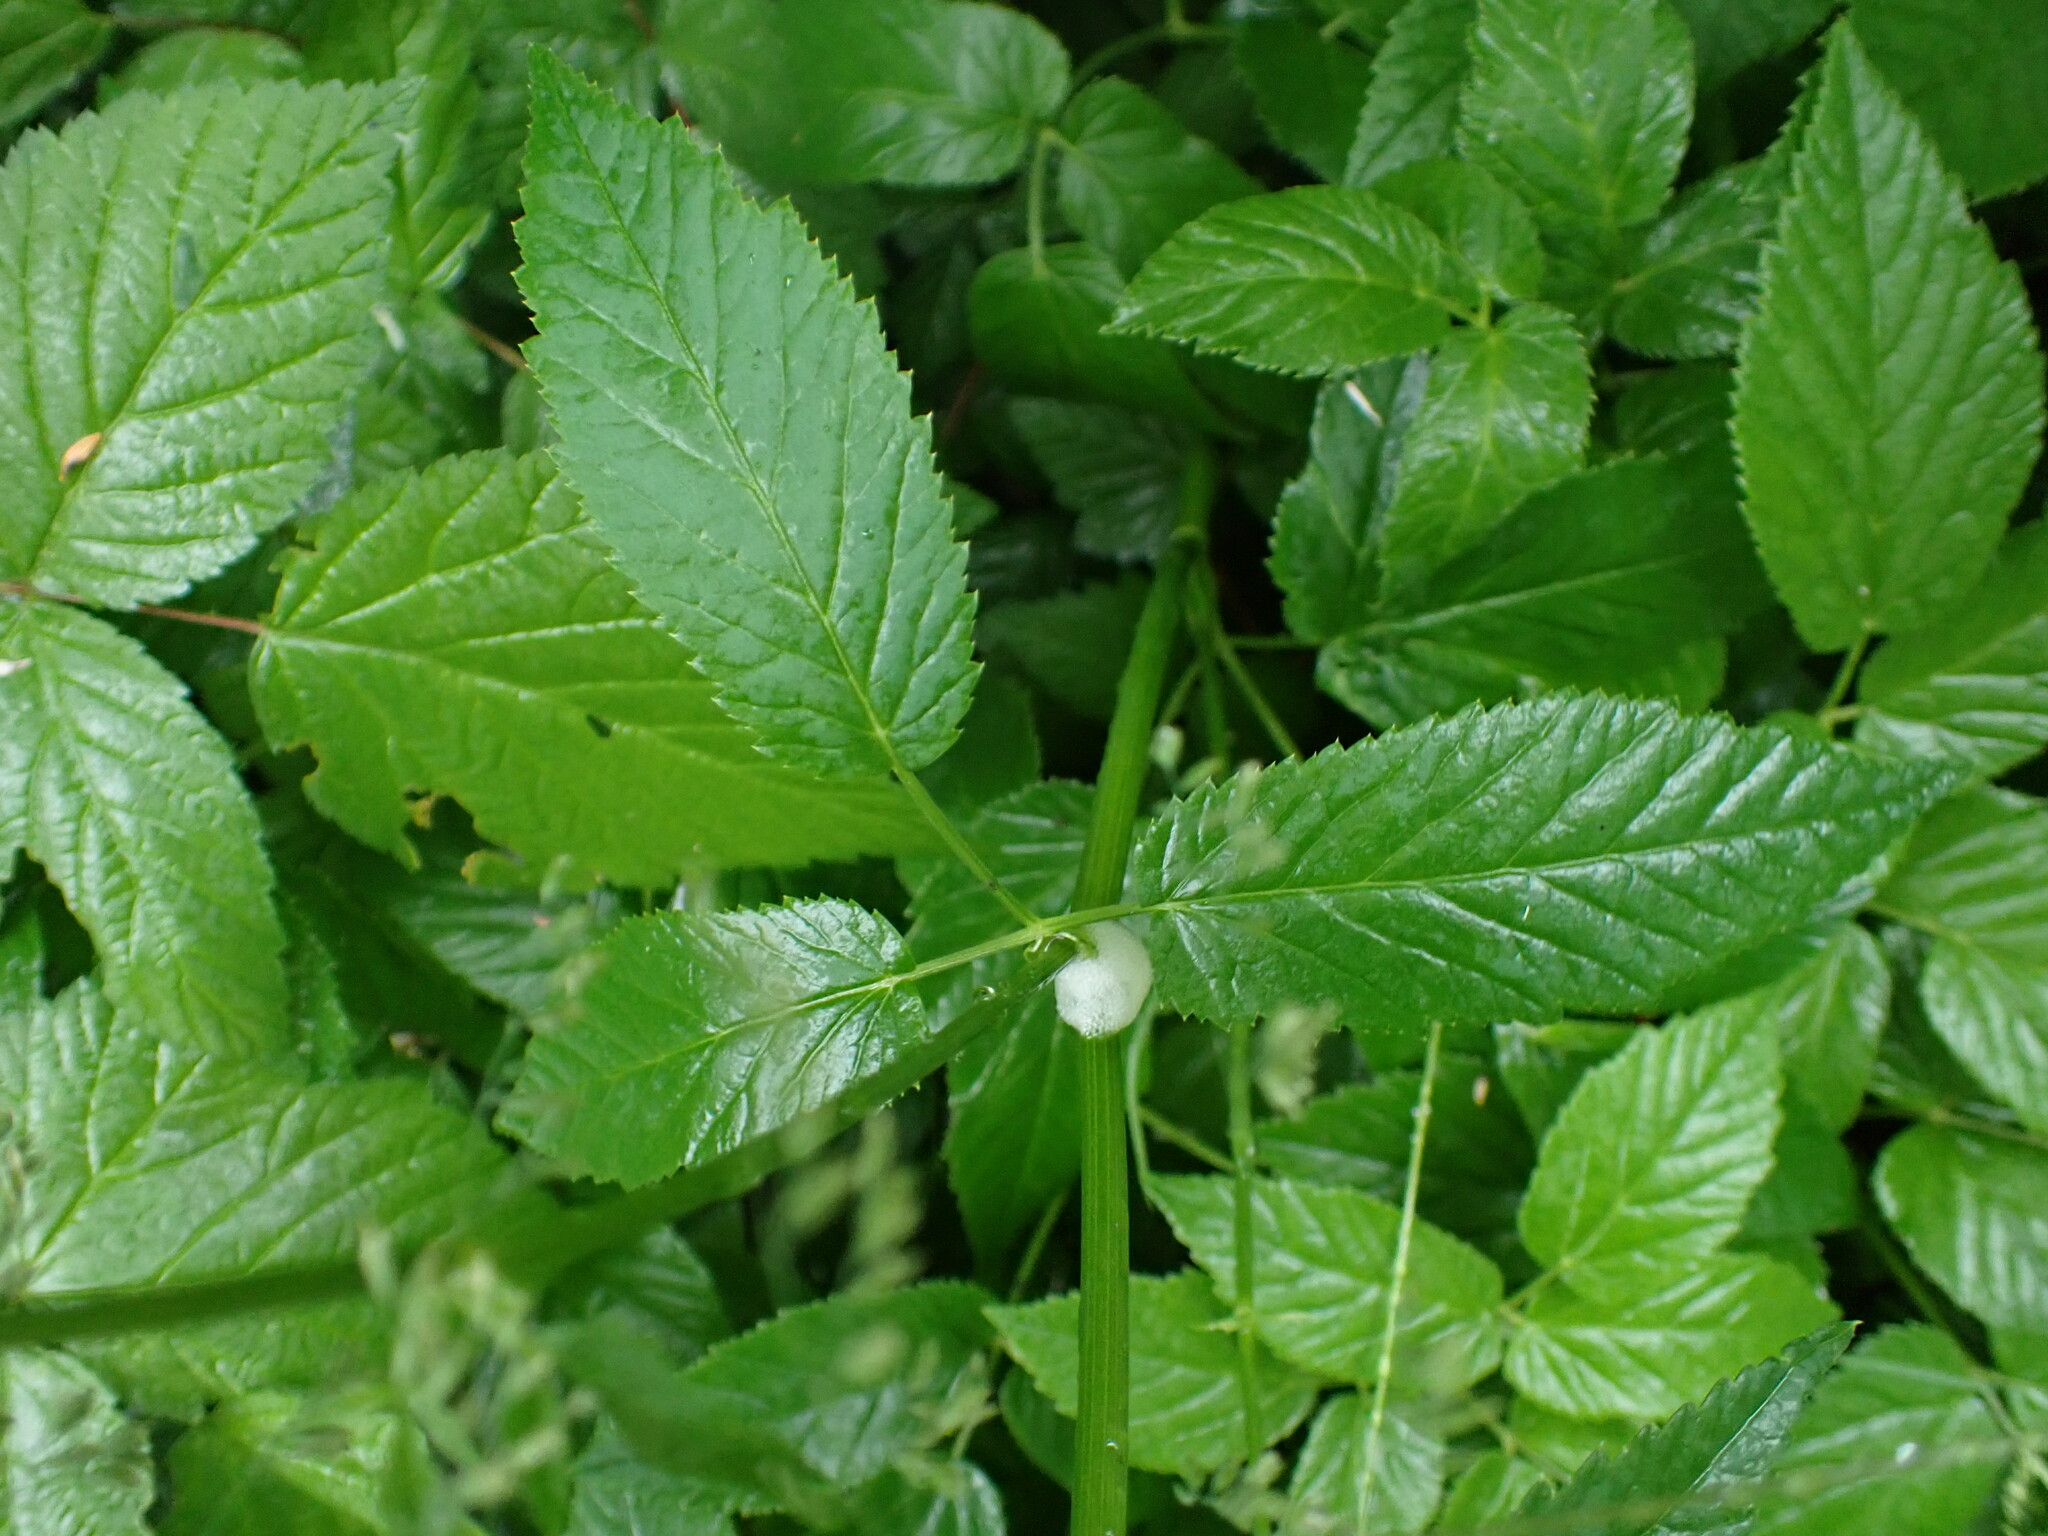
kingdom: Plantae
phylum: Tracheophyta
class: Magnoliopsida
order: Apiales
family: Apiaceae
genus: Aegopodium
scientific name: Aegopodium podagraria
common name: Ground-elder
